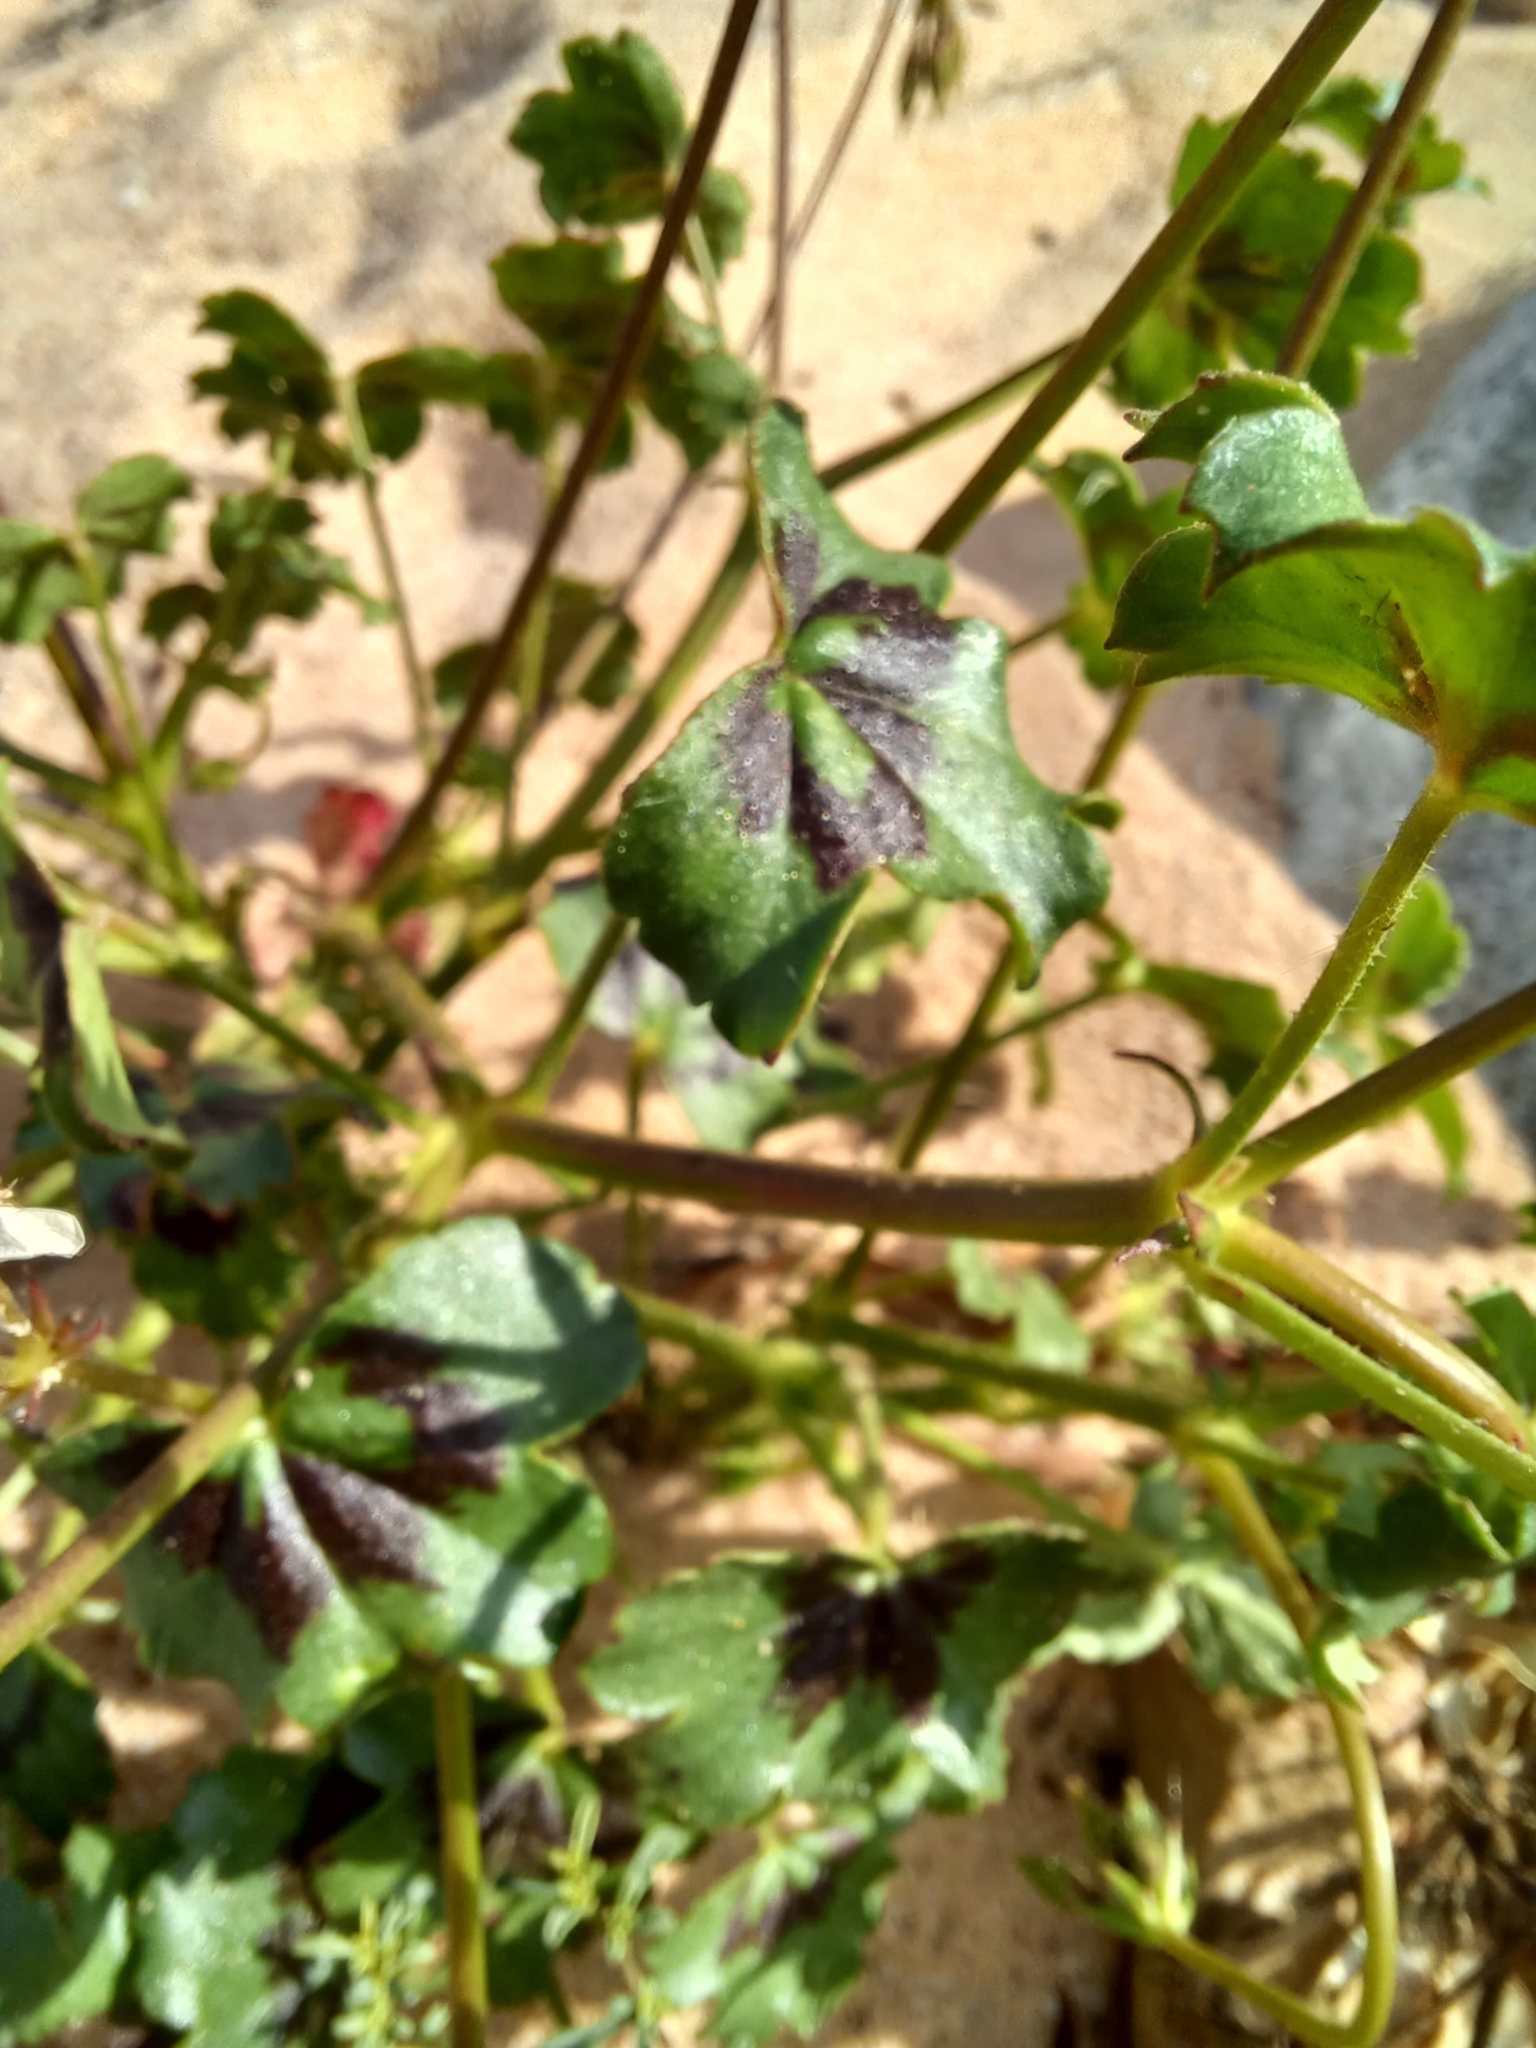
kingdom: Plantae
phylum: Tracheophyta
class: Magnoliopsida
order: Geraniales
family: Geraniaceae
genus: Pelargonium
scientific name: Pelargonium elongatum
